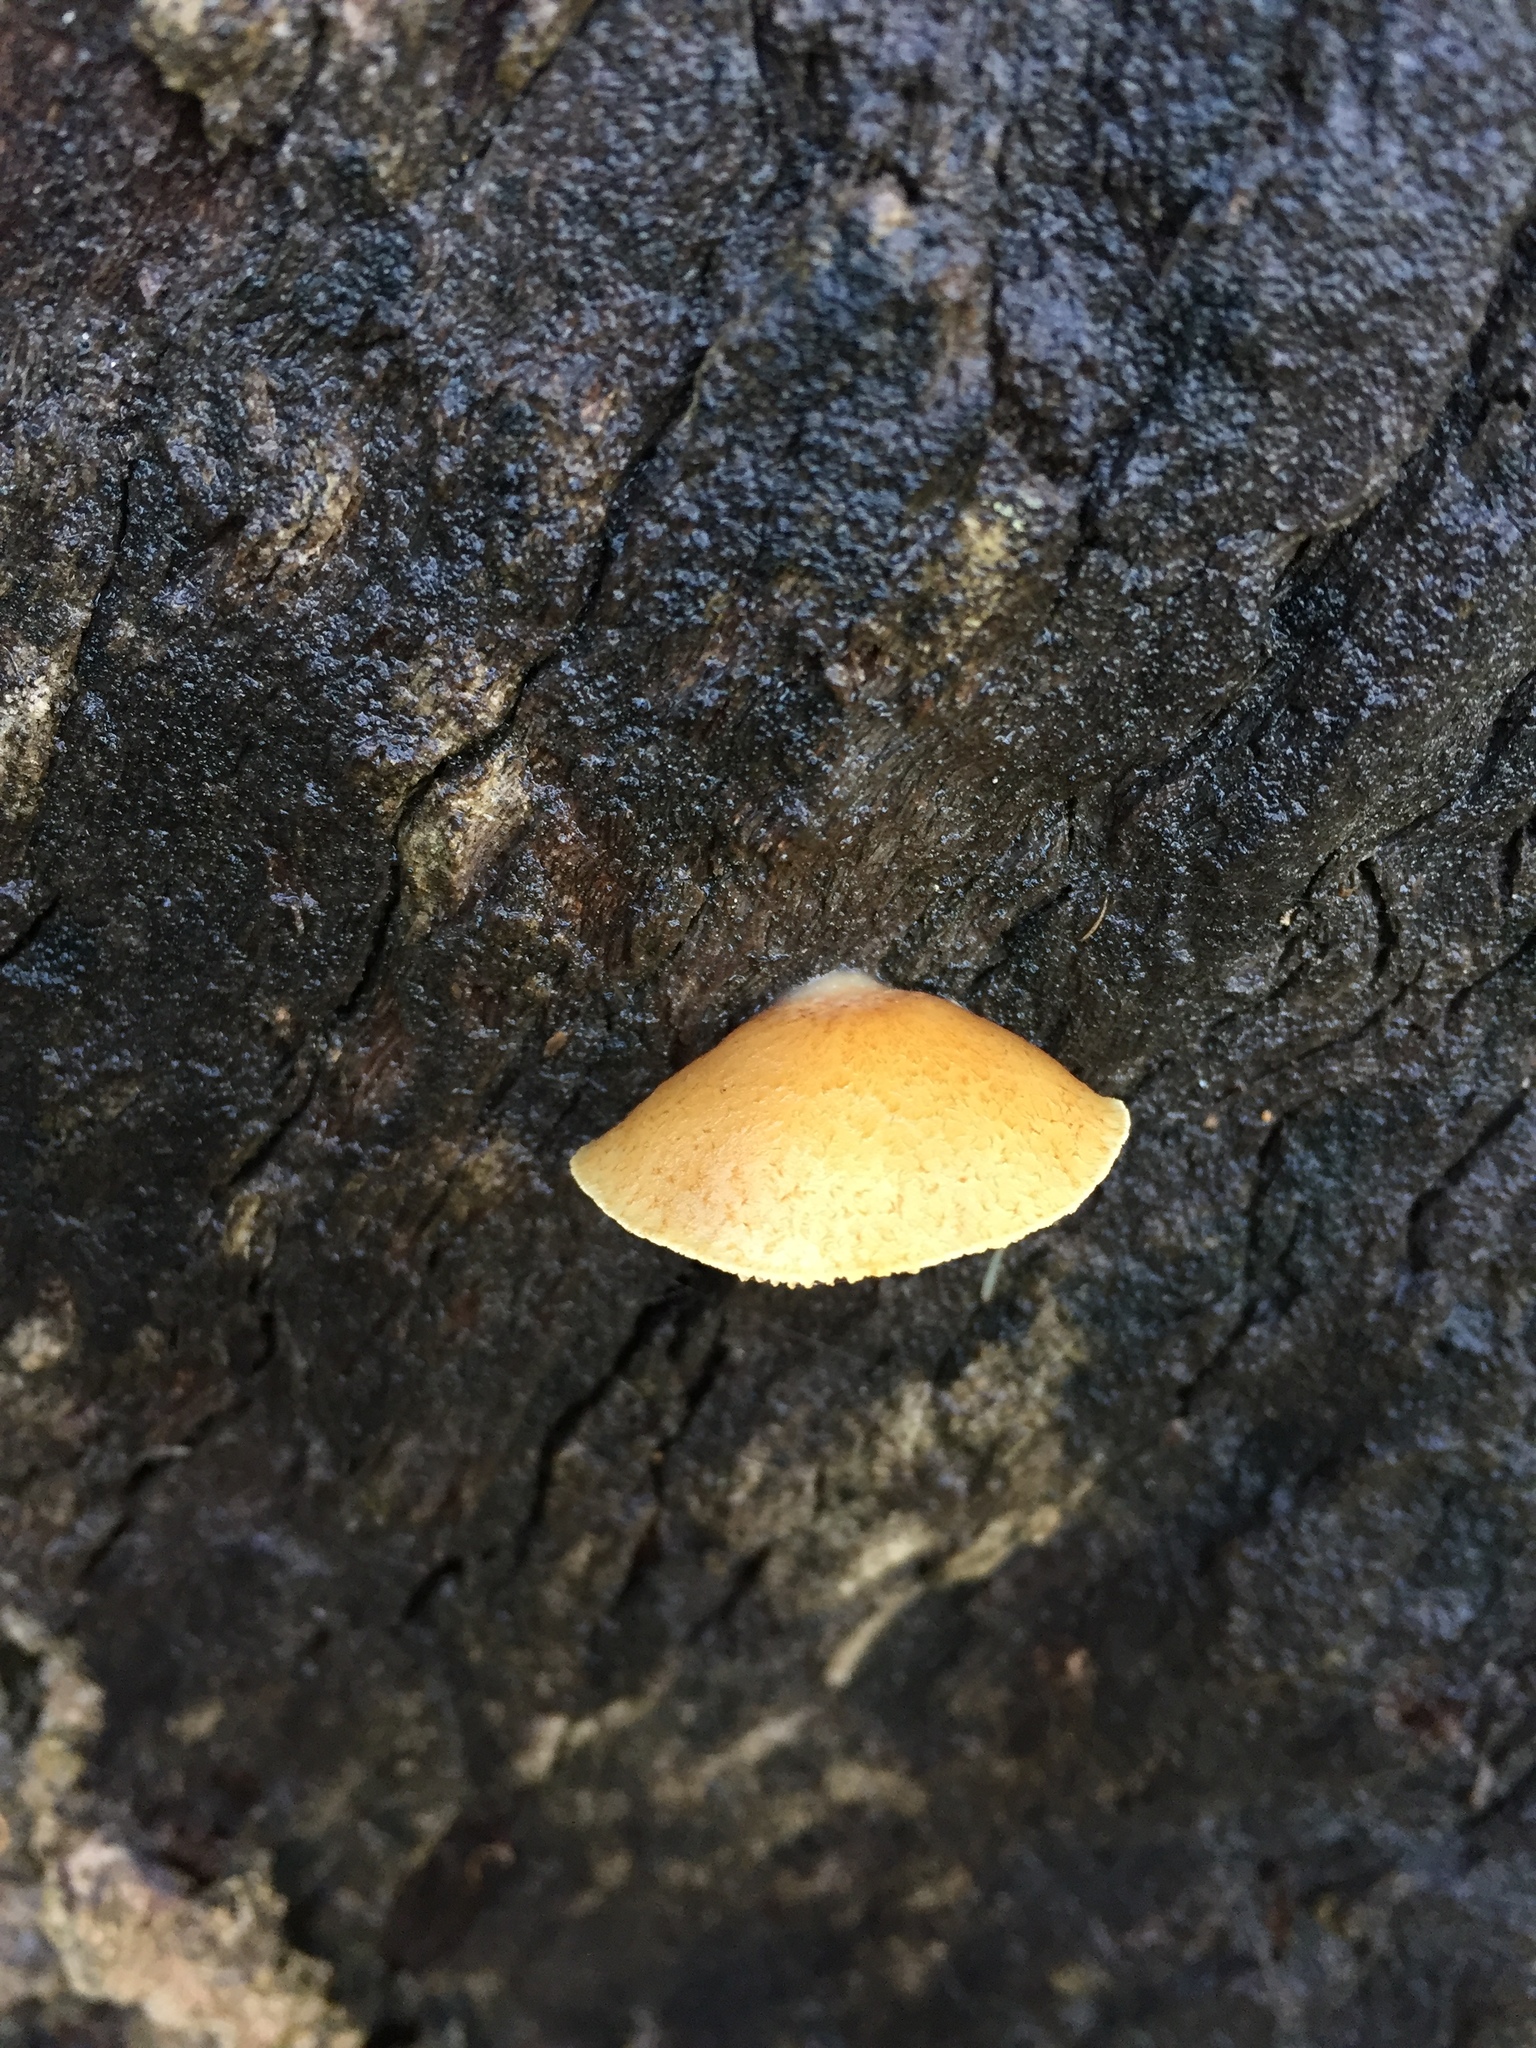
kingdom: Fungi
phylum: Basidiomycota
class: Agaricomycetes
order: Agaricales
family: Crepidotaceae
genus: Crepidotus
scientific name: Crepidotus mollis
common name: Peeling oysterling
